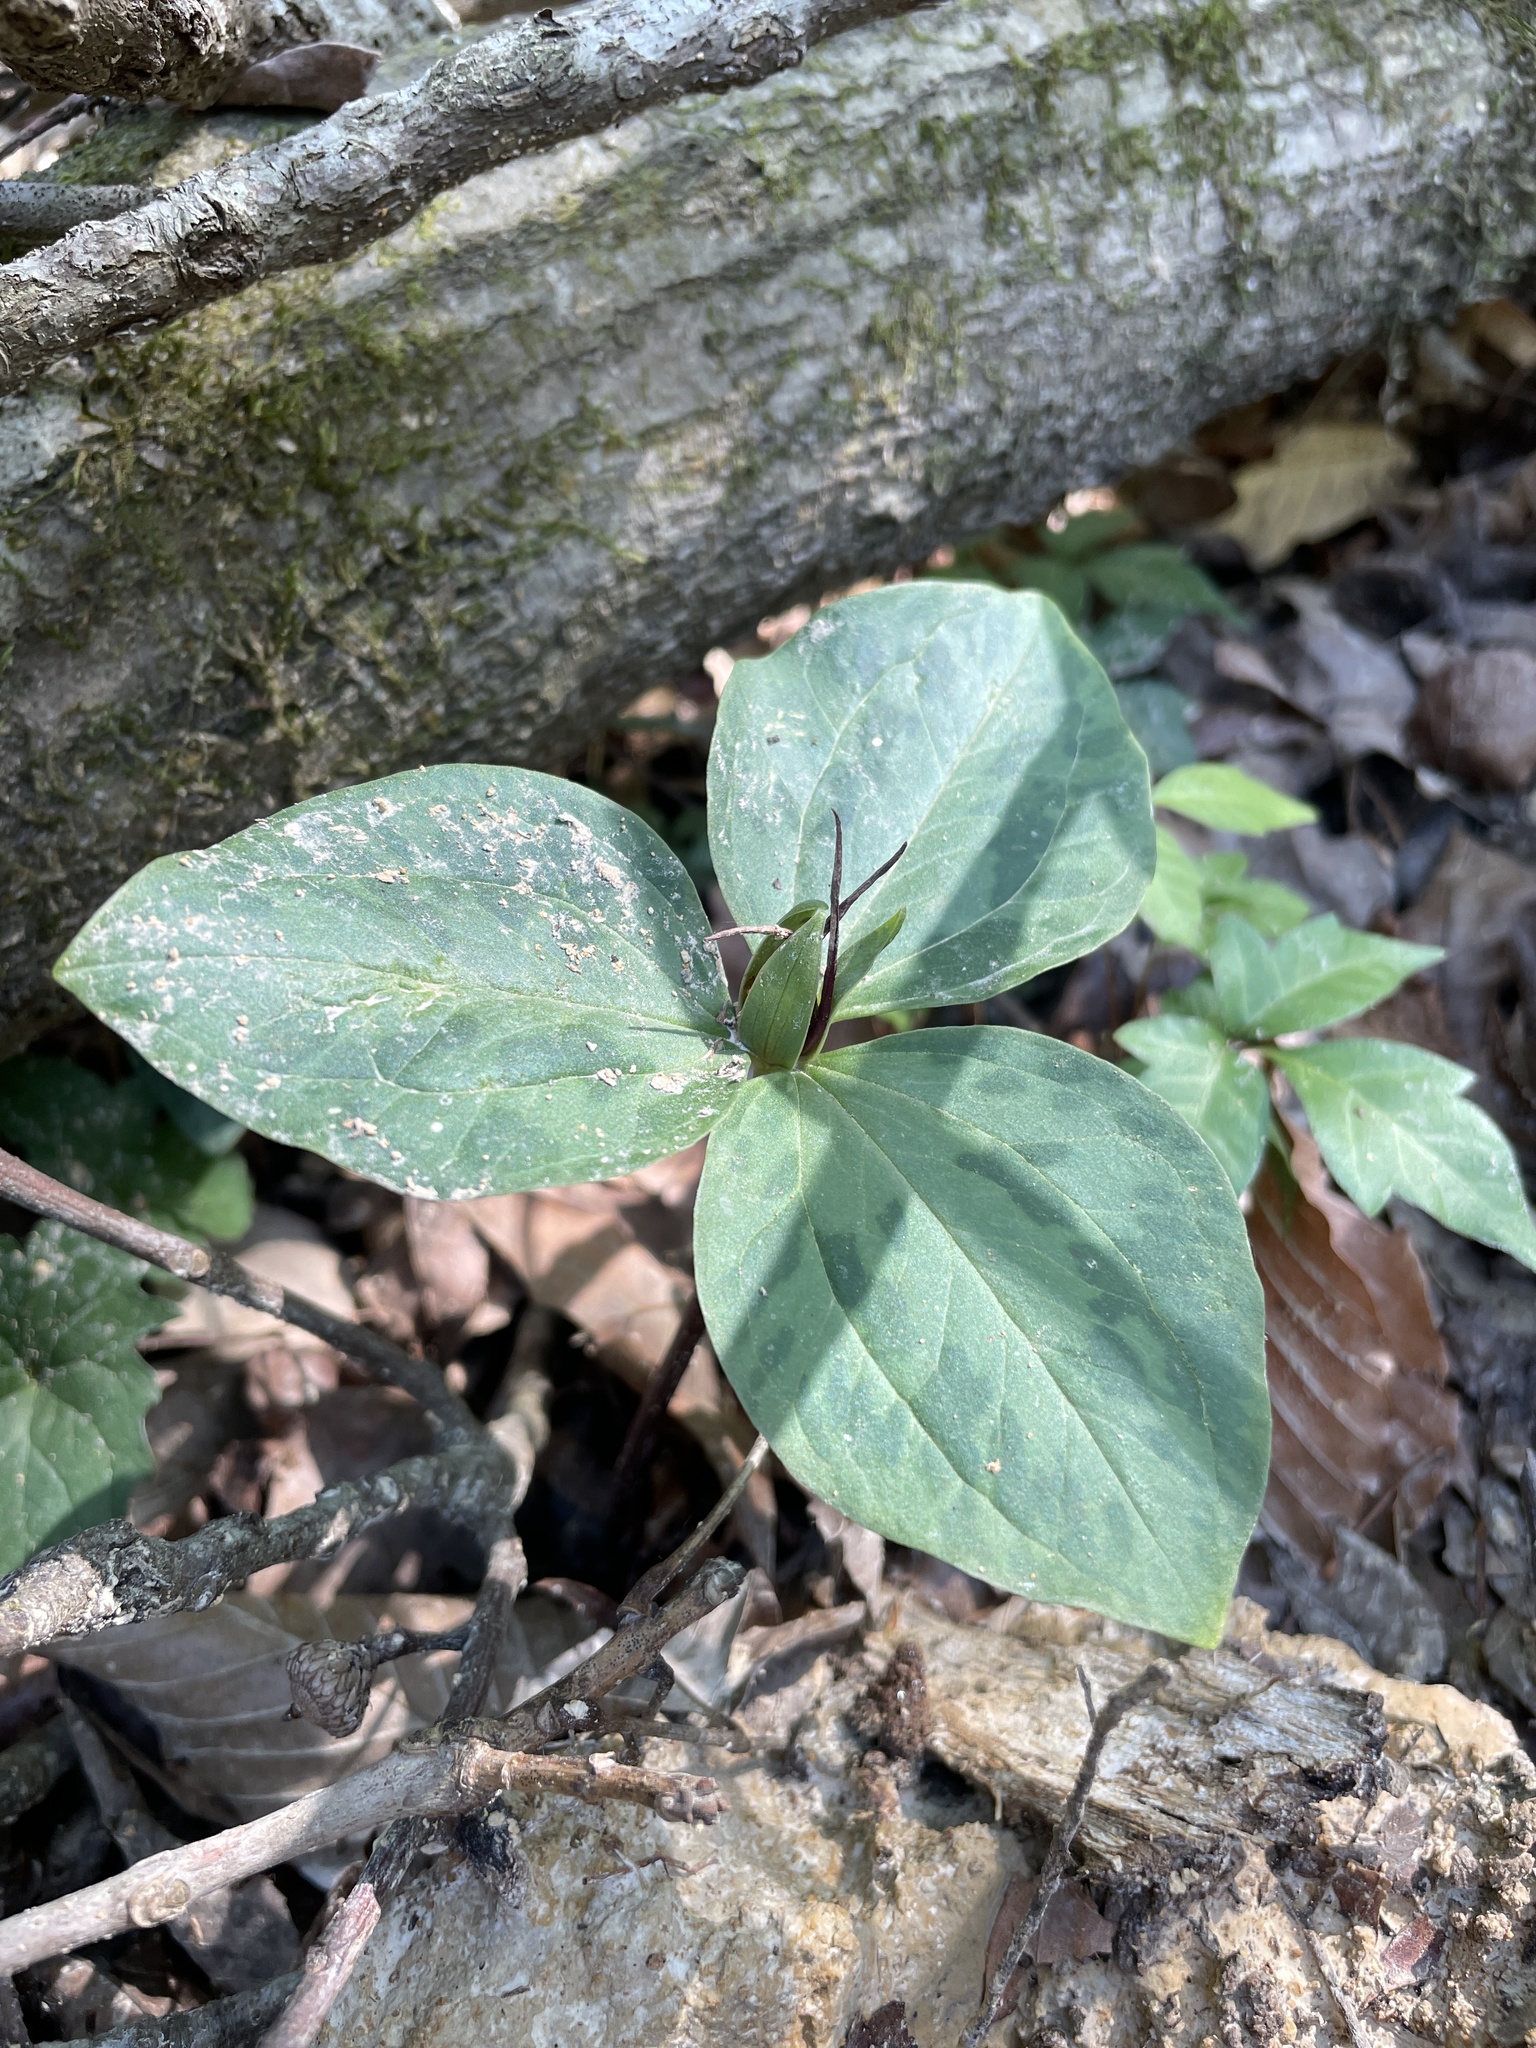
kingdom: Plantae
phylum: Tracheophyta
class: Liliopsida
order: Liliales
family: Melanthiaceae
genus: Trillium
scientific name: Trillium foetidissimum
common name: Mississippi river trillium
